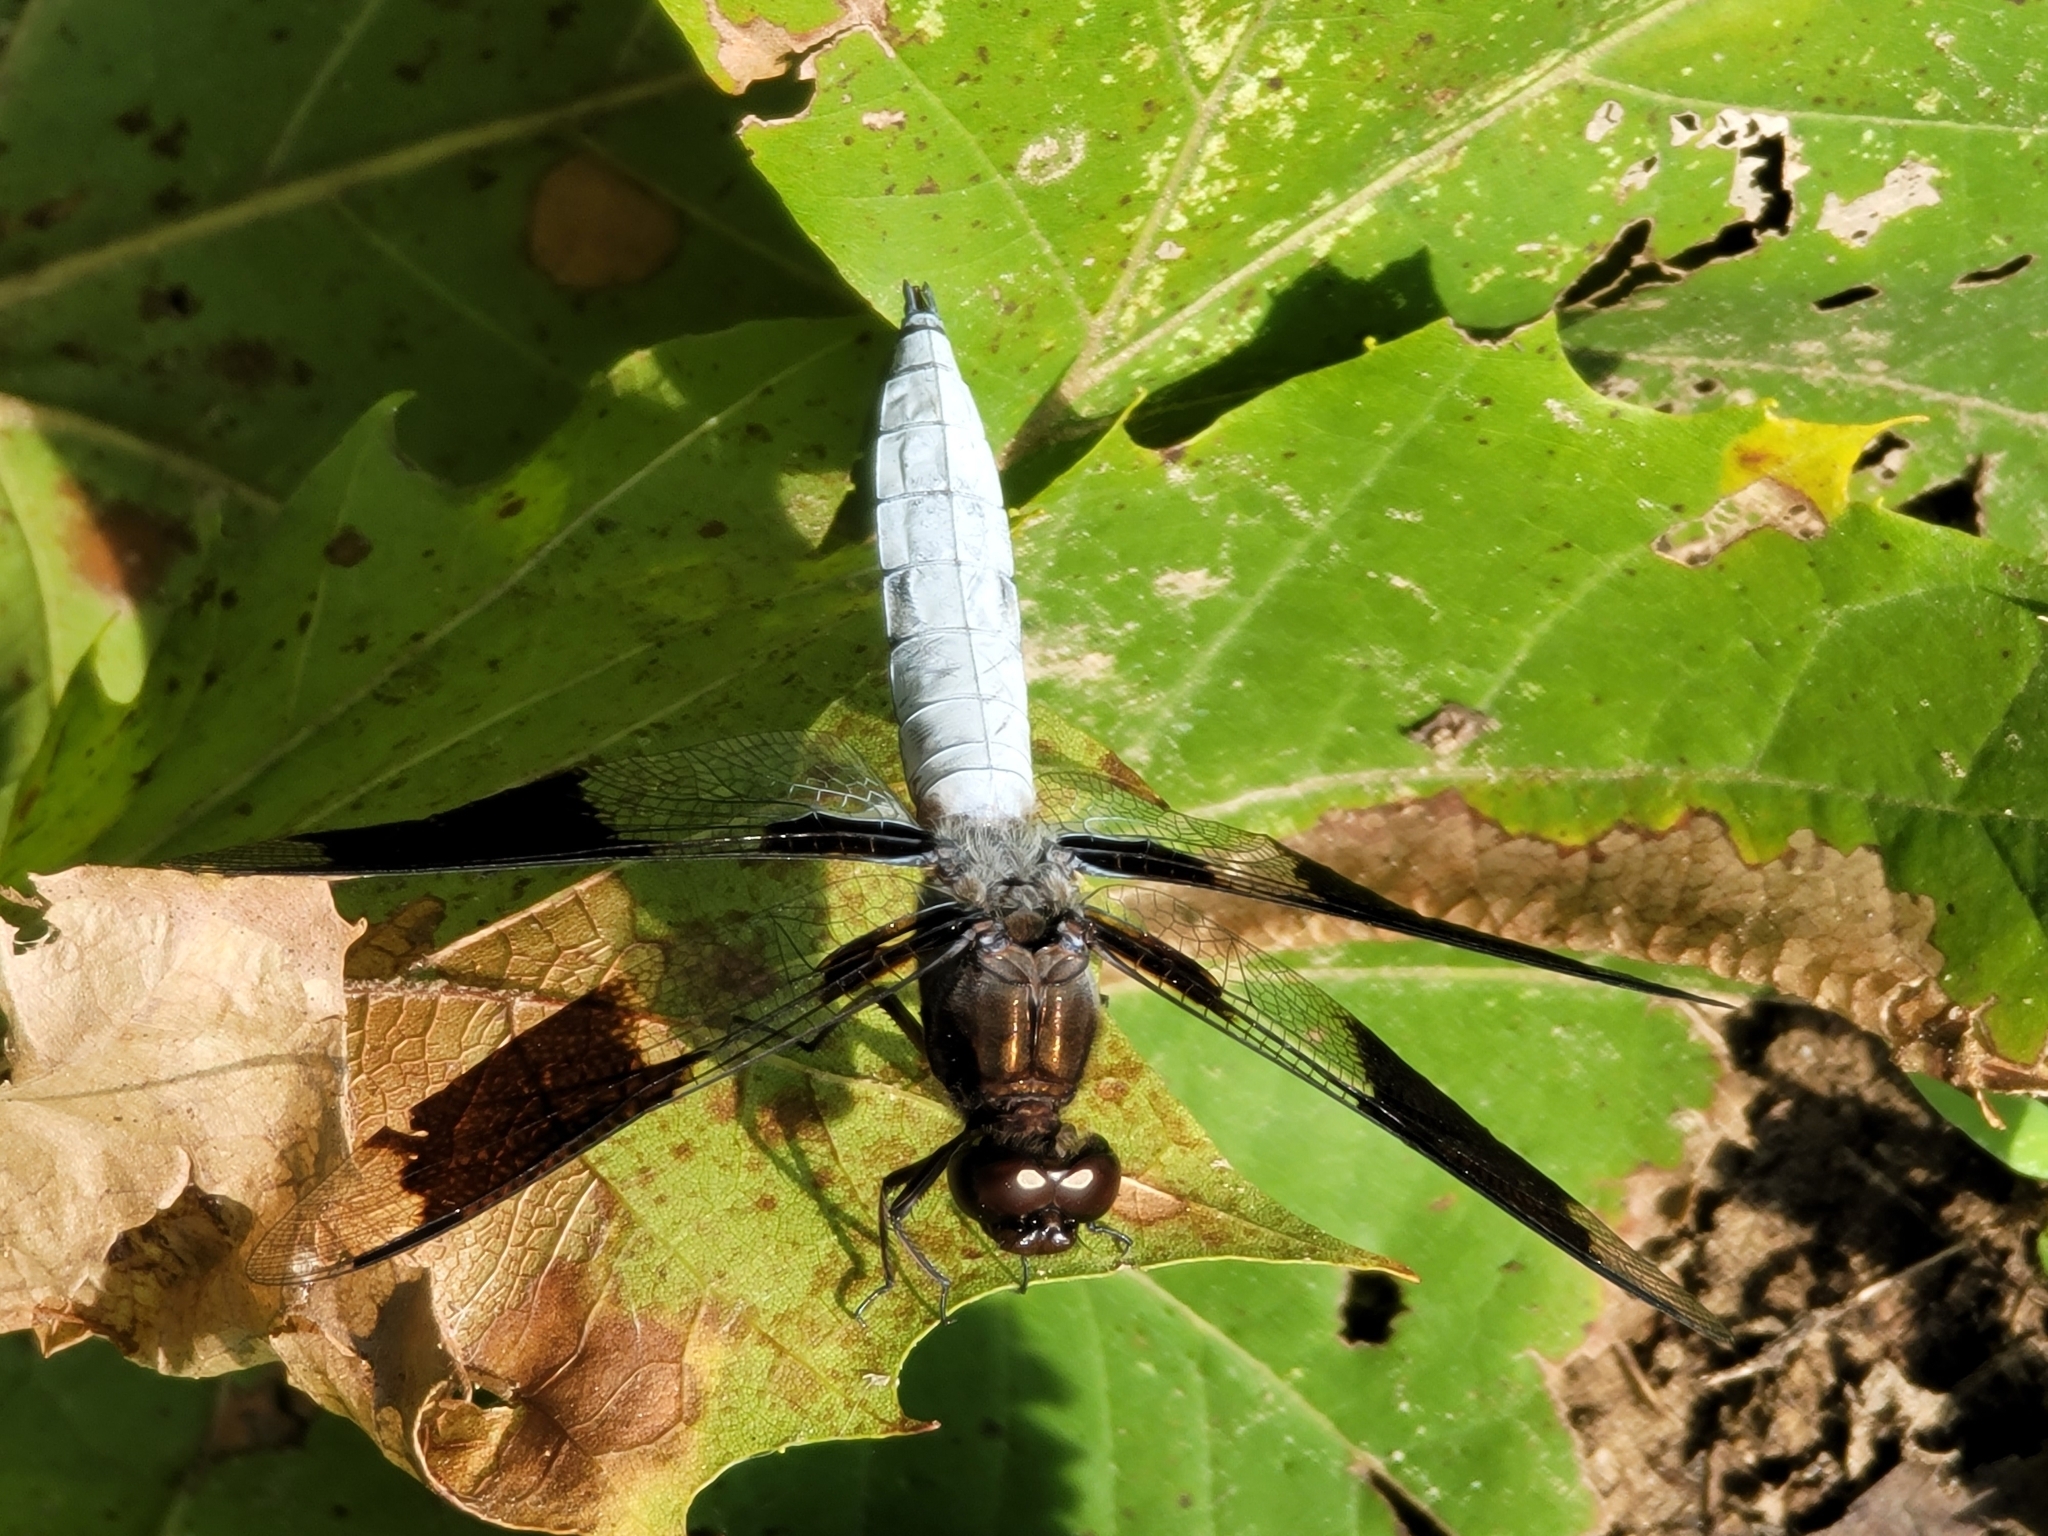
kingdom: Animalia
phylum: Arthropoda
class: Insecta
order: Odonata
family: Libellulidae
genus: Plathemis
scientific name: Plathemis lydia
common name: Common whitetail
